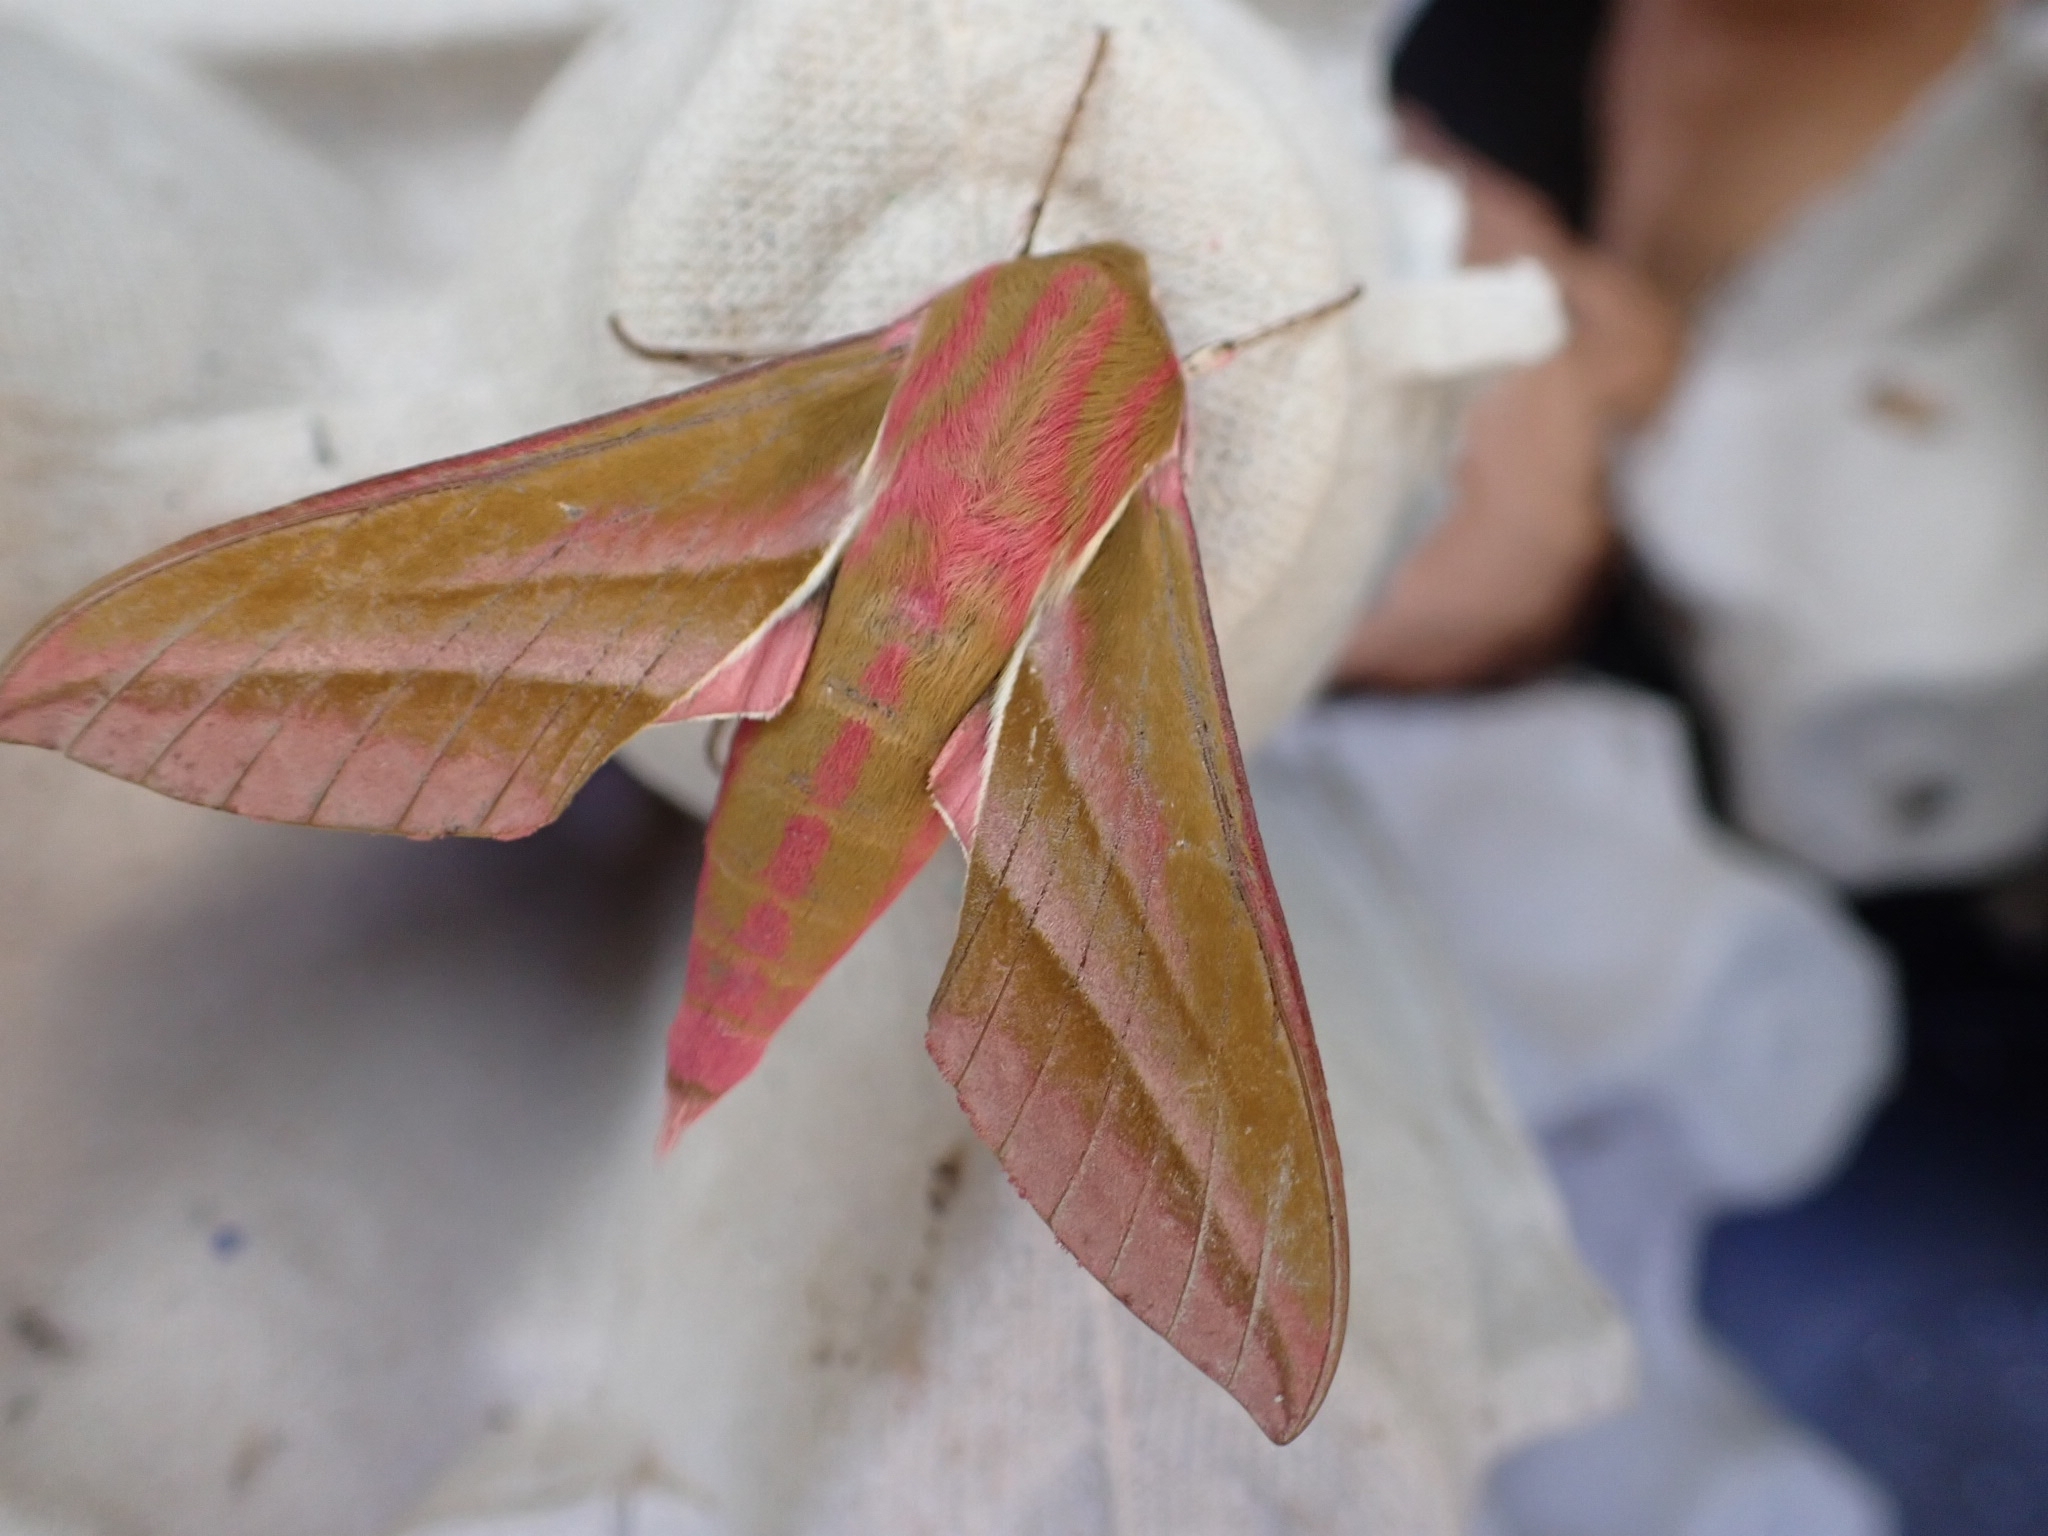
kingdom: Animalia
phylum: Arthropoda
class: Insecta
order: Lepidoptera
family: Sphingidae
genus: Deilephila
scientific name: Deilephila elpenor
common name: Elephant hawk-moth
